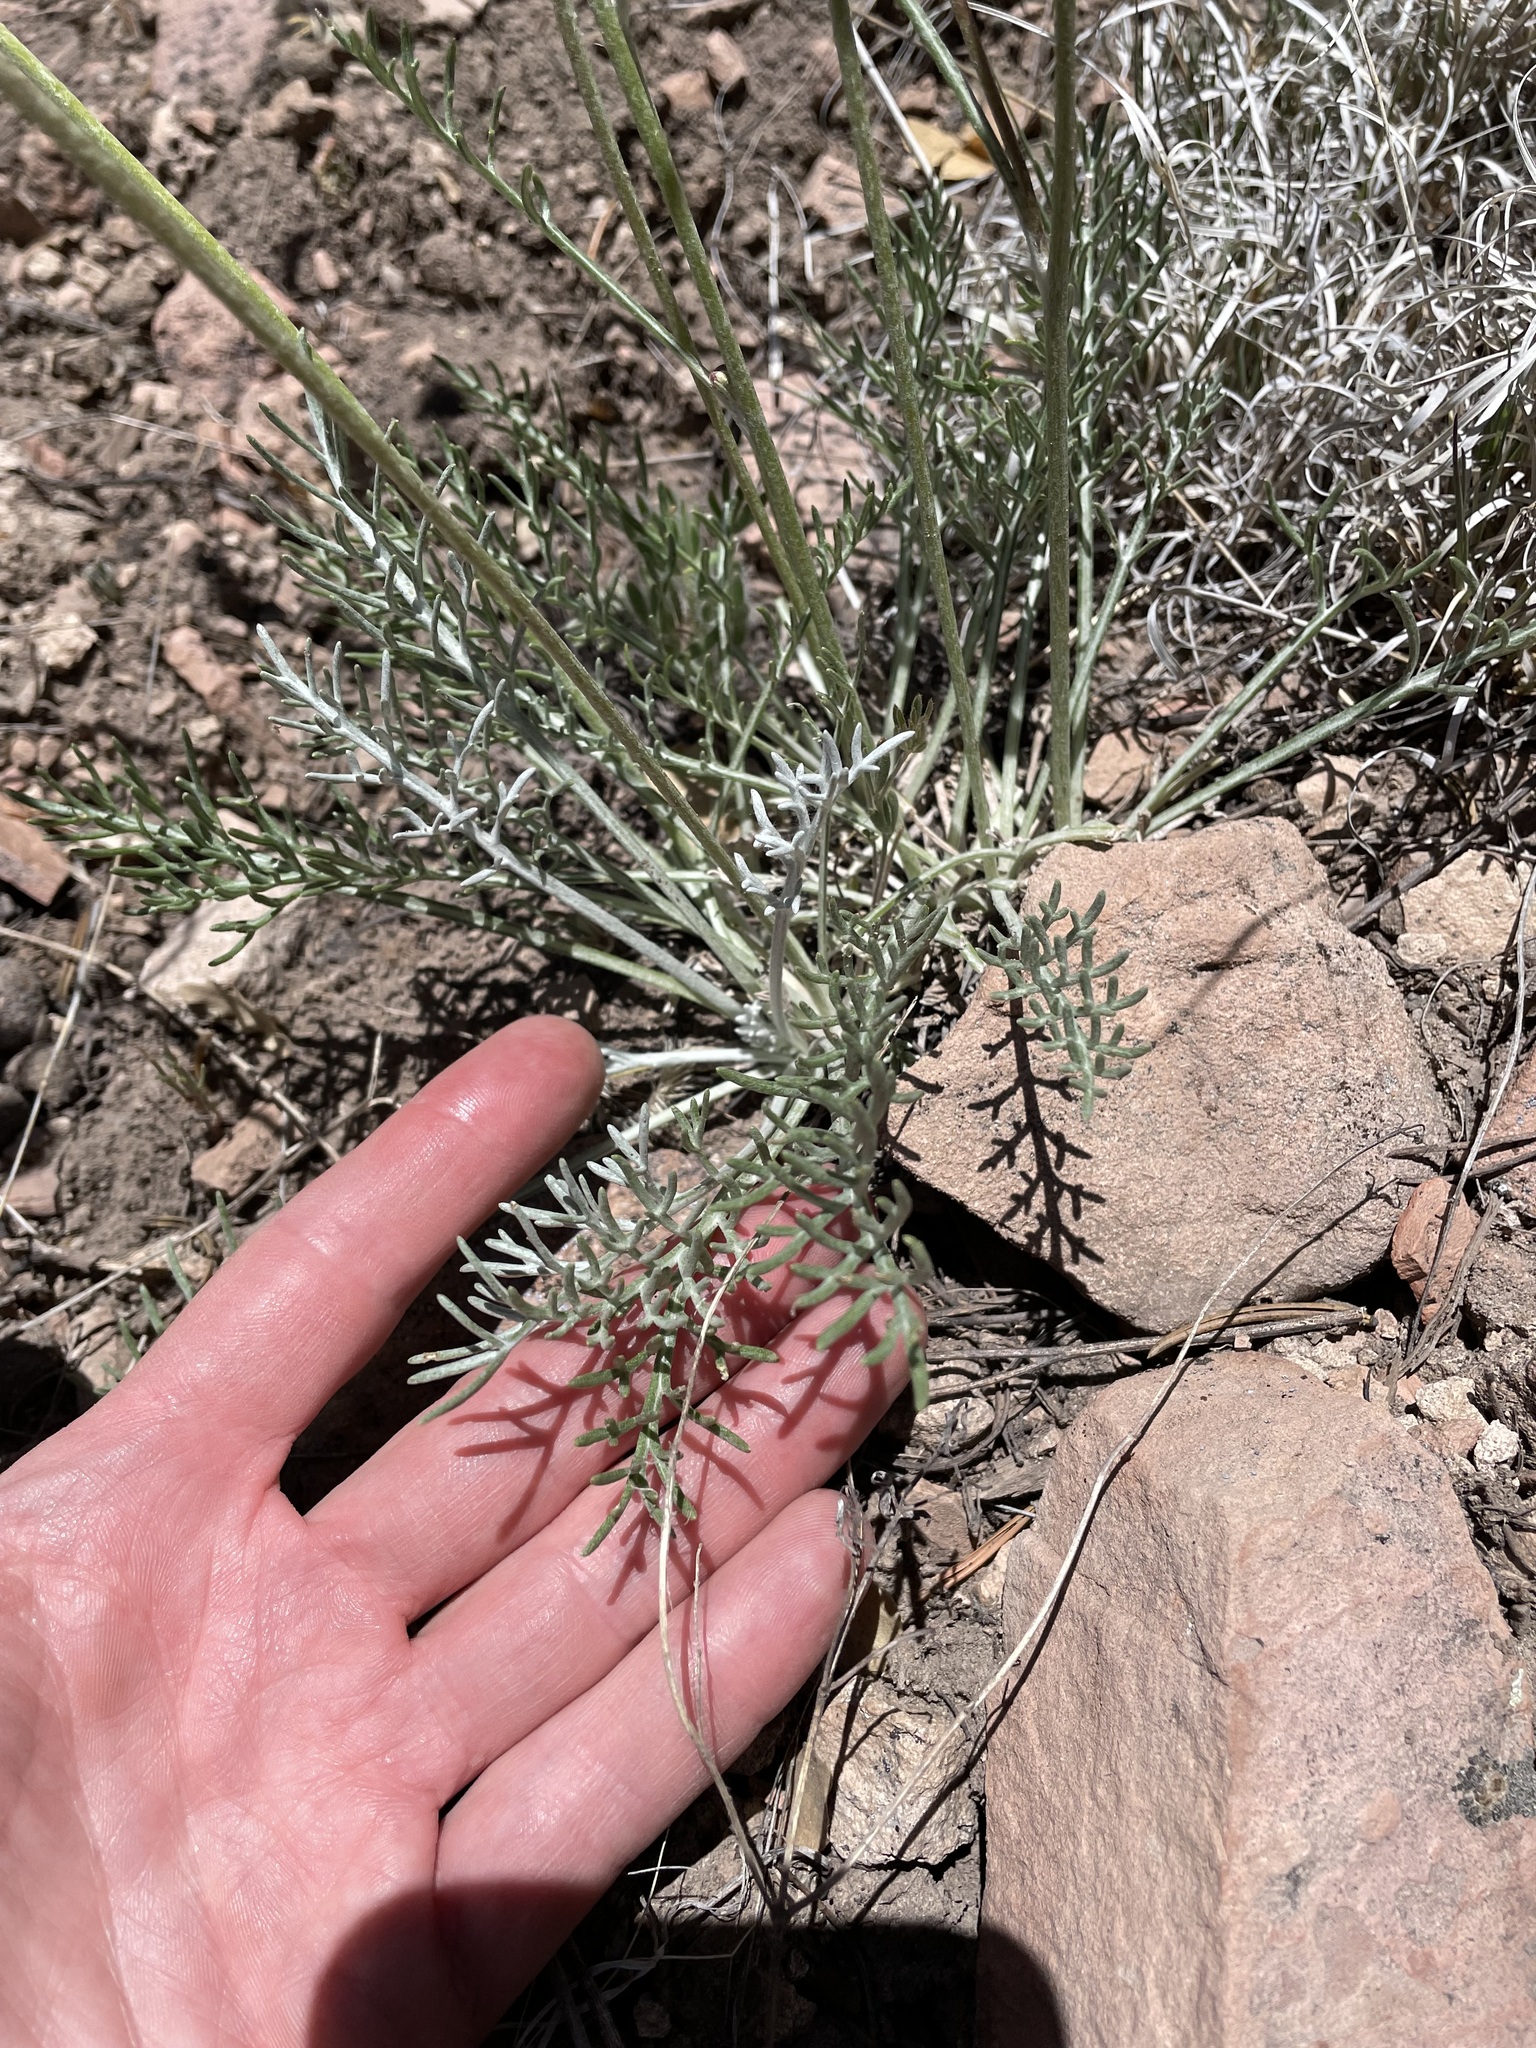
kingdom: Plantae
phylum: Tracheophyta
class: Magnoliopsida
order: Asterales
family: Asteraceae
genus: Hymenopappus
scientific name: Hymenopappus filifolius
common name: Columbia cutleaf
